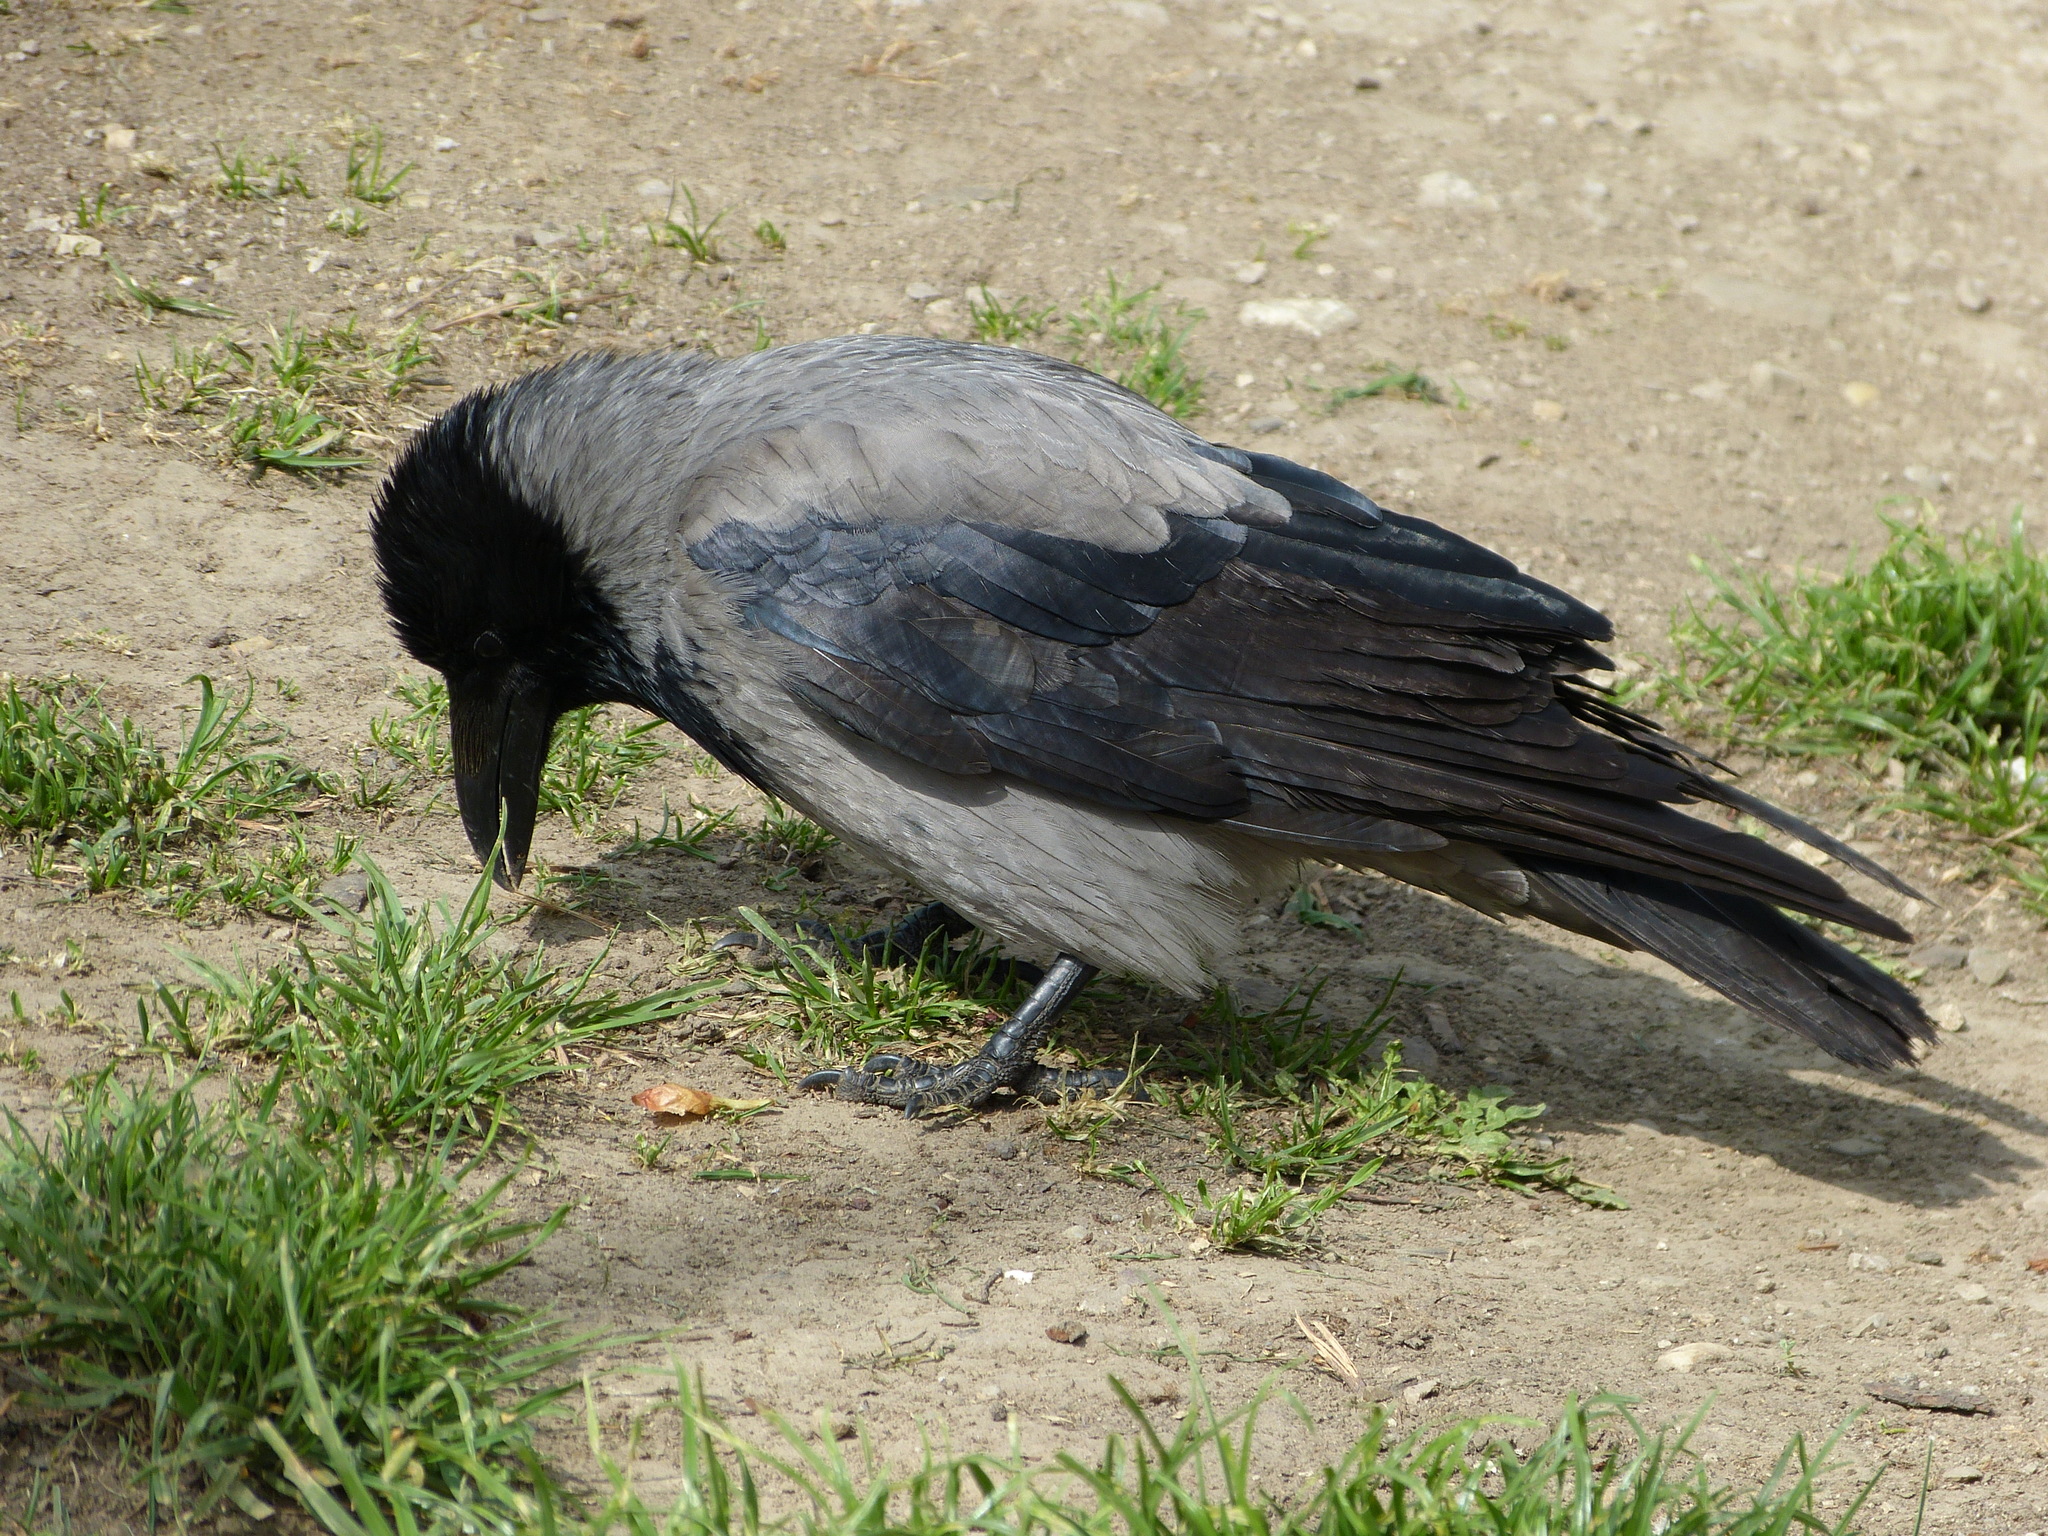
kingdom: Animalia
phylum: Chordata
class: Aves
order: Passeriformes
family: Corvidae
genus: Corvus
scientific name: Corvus cornix
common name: Hooded crow
